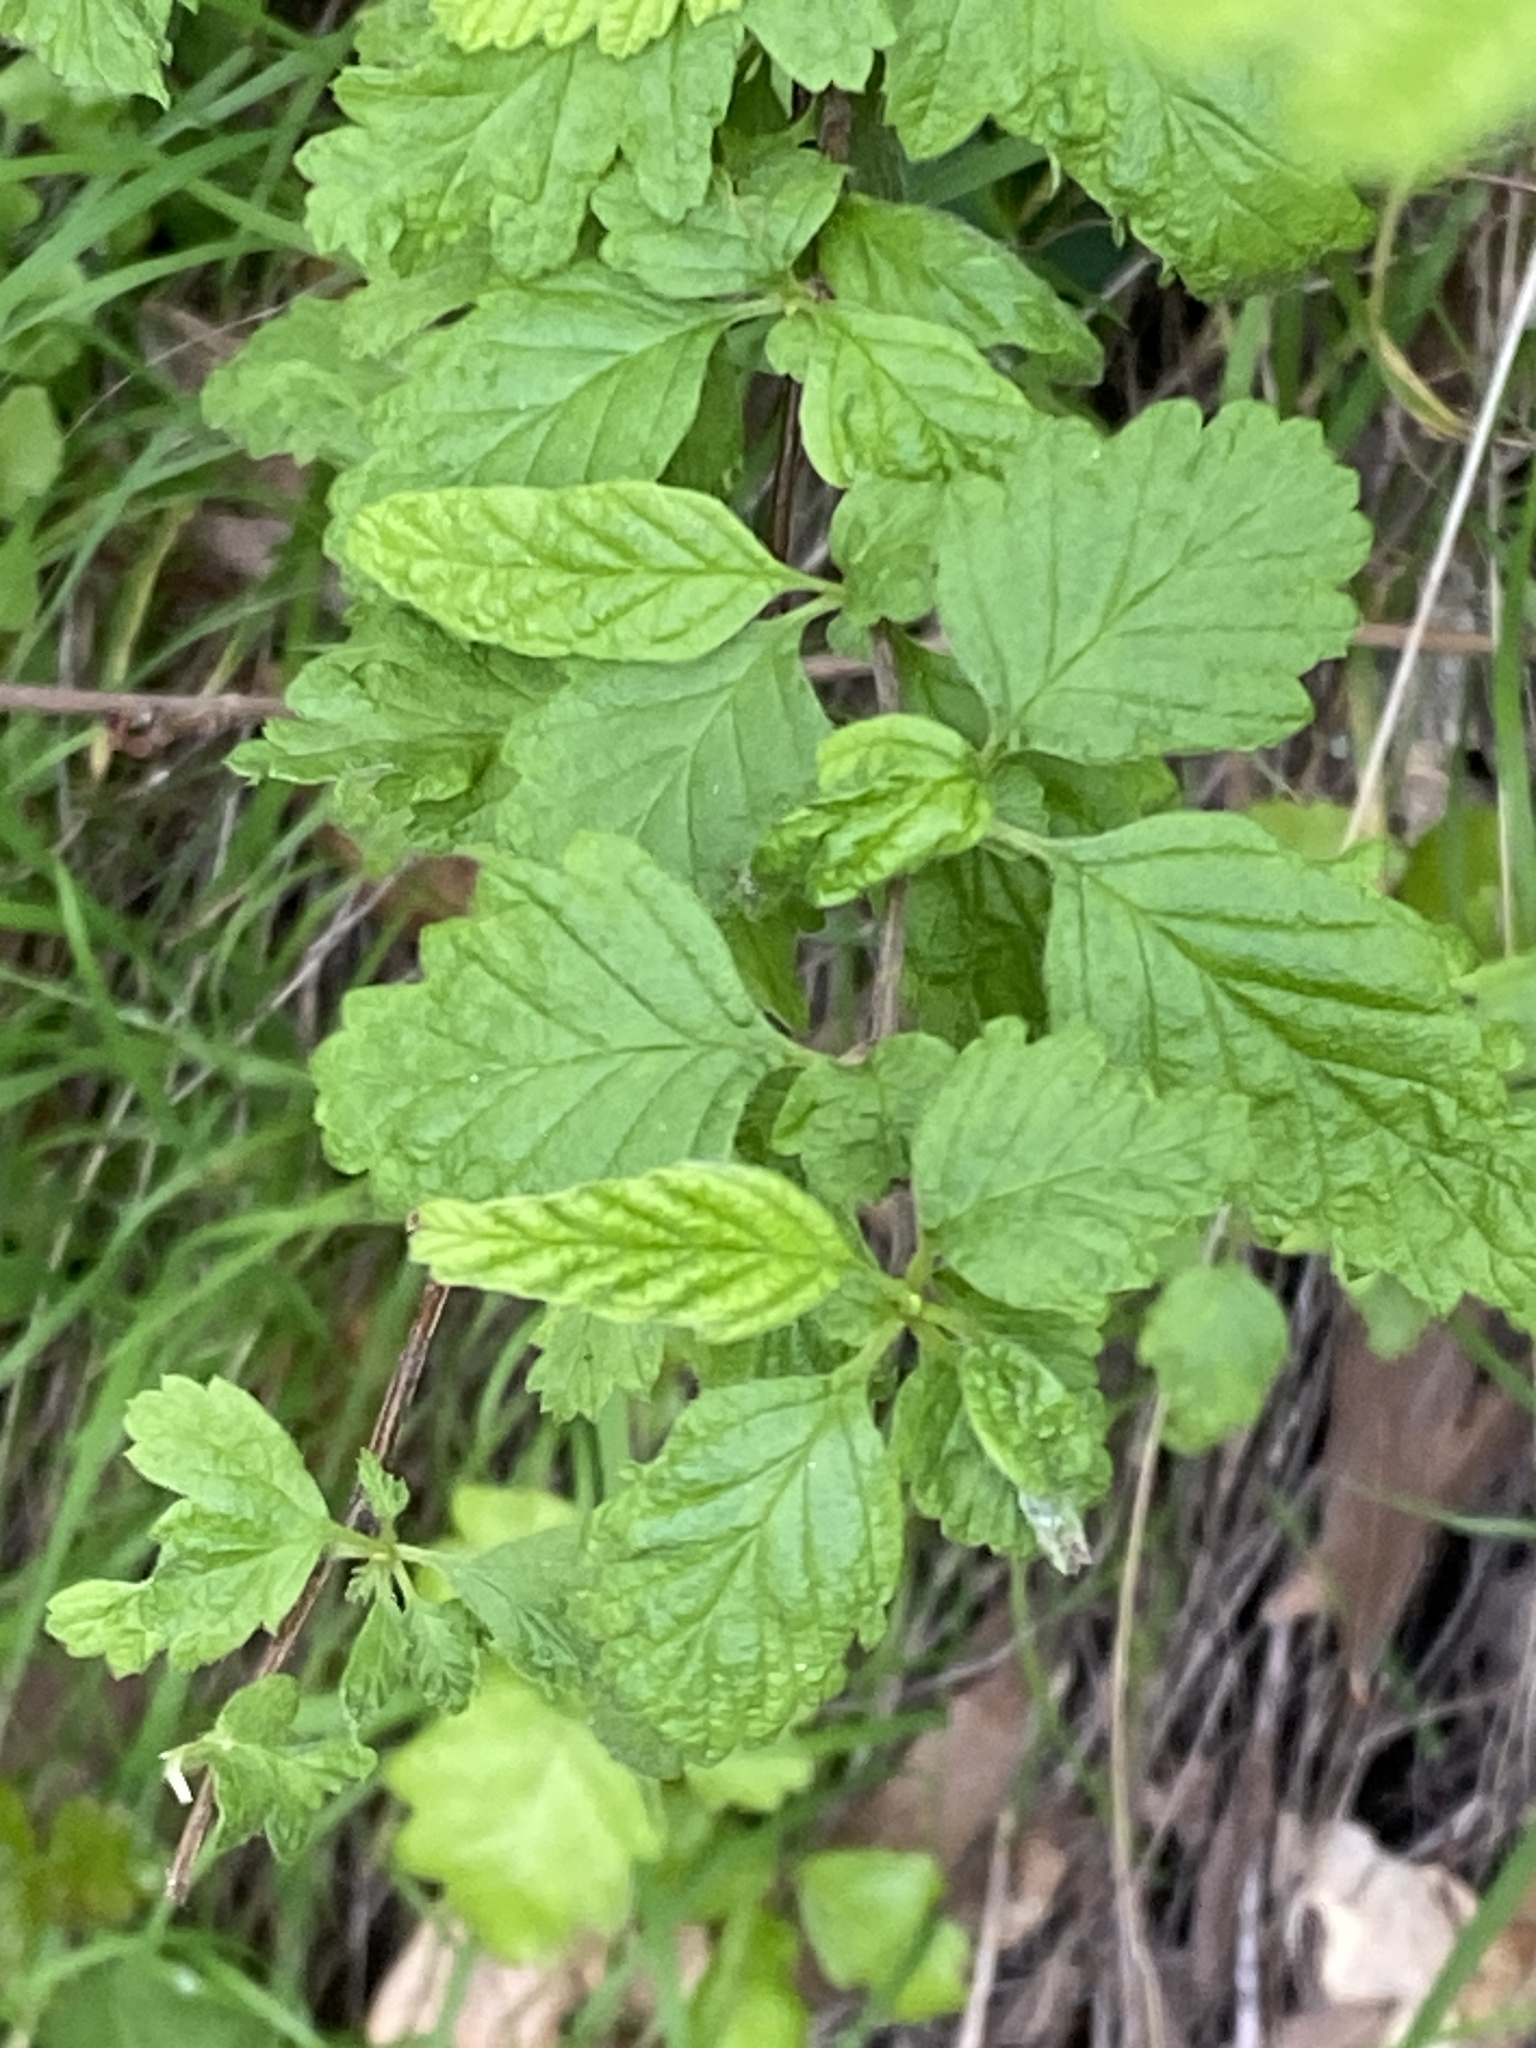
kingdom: Plantae
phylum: Tracheophyta
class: Magnoliopsida
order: Rosales
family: Rosaceae
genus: Holodiscus
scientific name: Holodiscus discolor
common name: Oceanspray
